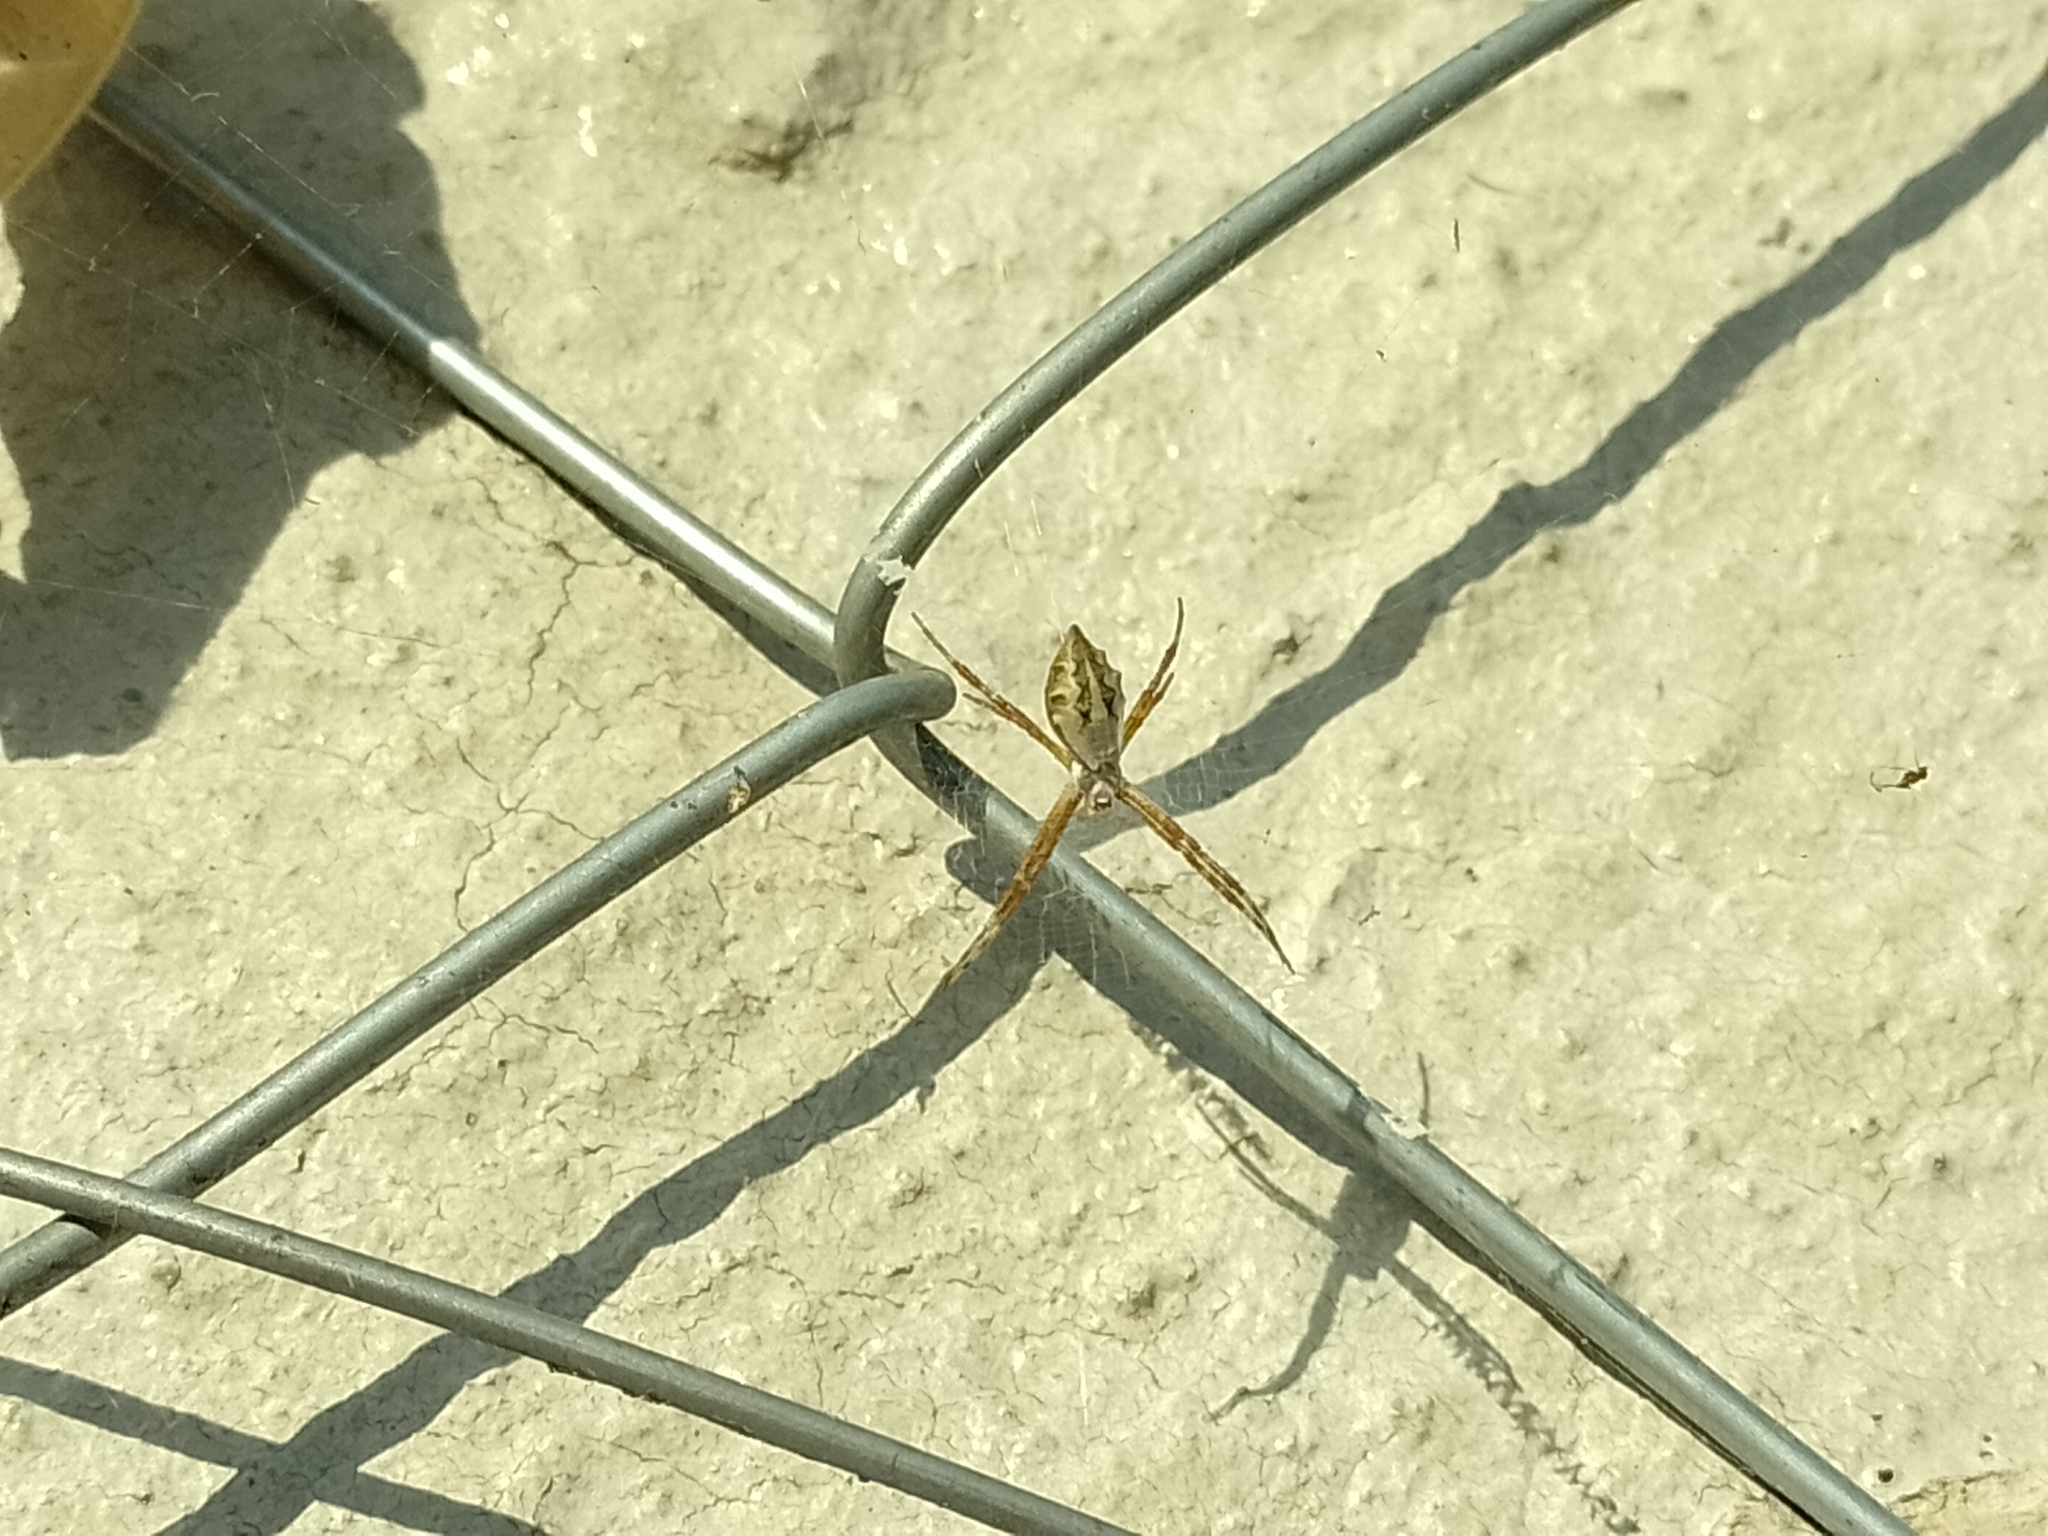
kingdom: Animalia
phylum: Arthropoda
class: Arachnida
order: Araneae
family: Araneidae
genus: Argiope
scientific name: Argiope argentata
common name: Orb weavers
